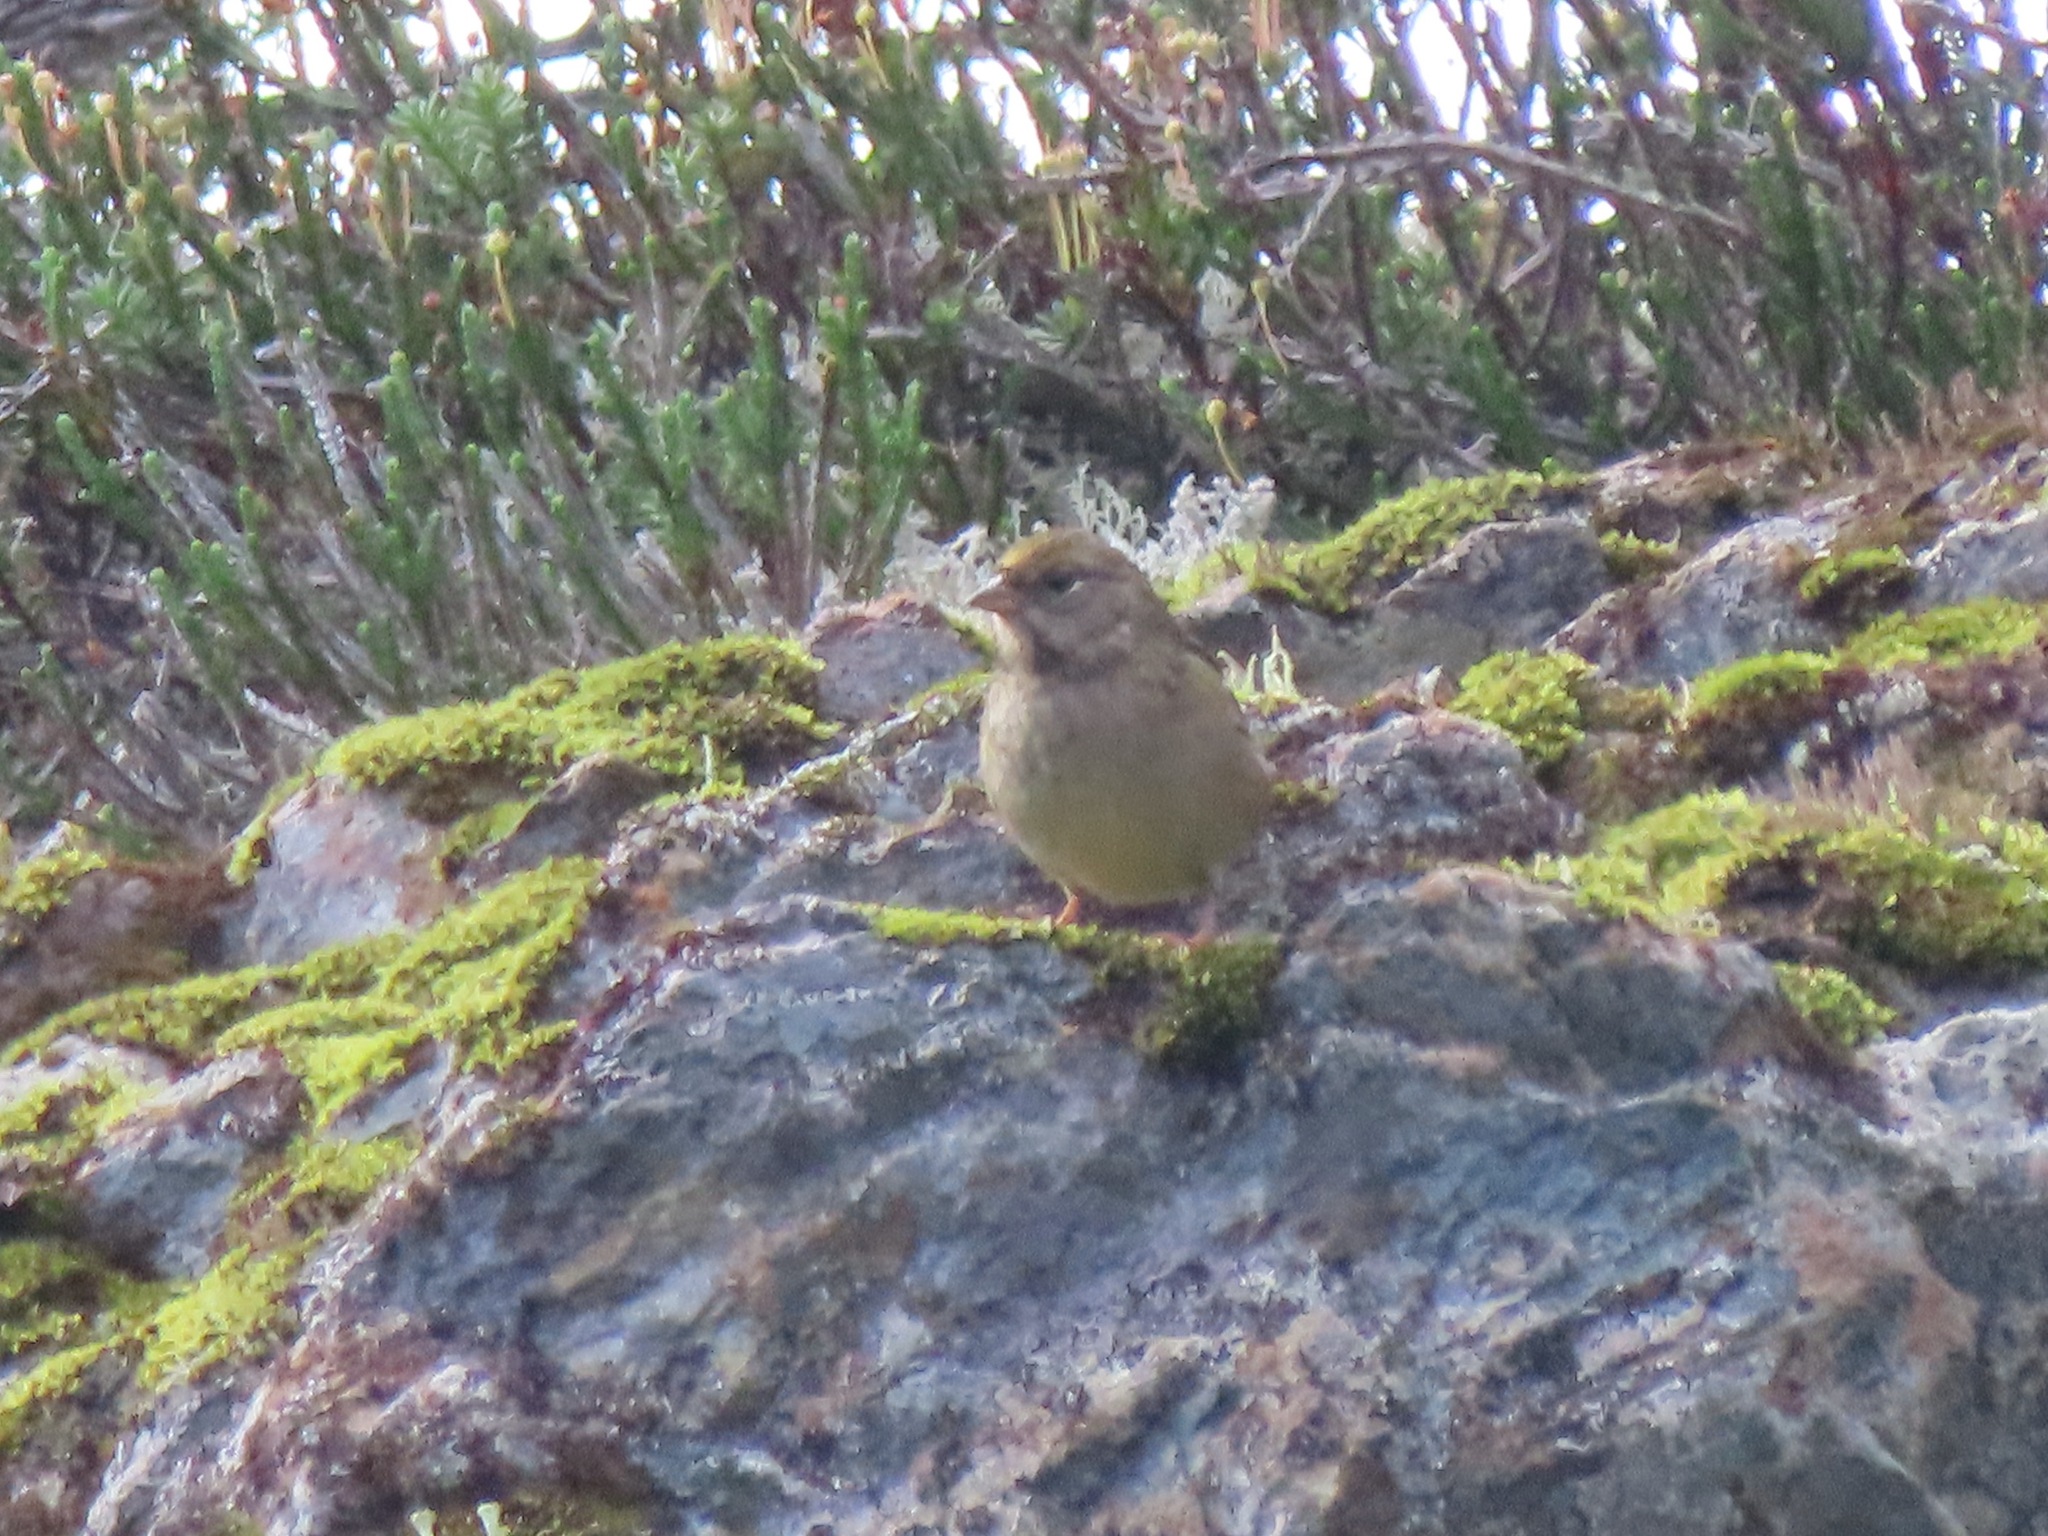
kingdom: Animalia
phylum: Chordata
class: Aves
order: Passeriformes
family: Passerellidae
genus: Zonotrichia
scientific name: Zonotrichia atricapilla
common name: Golden-crowned sparrow
